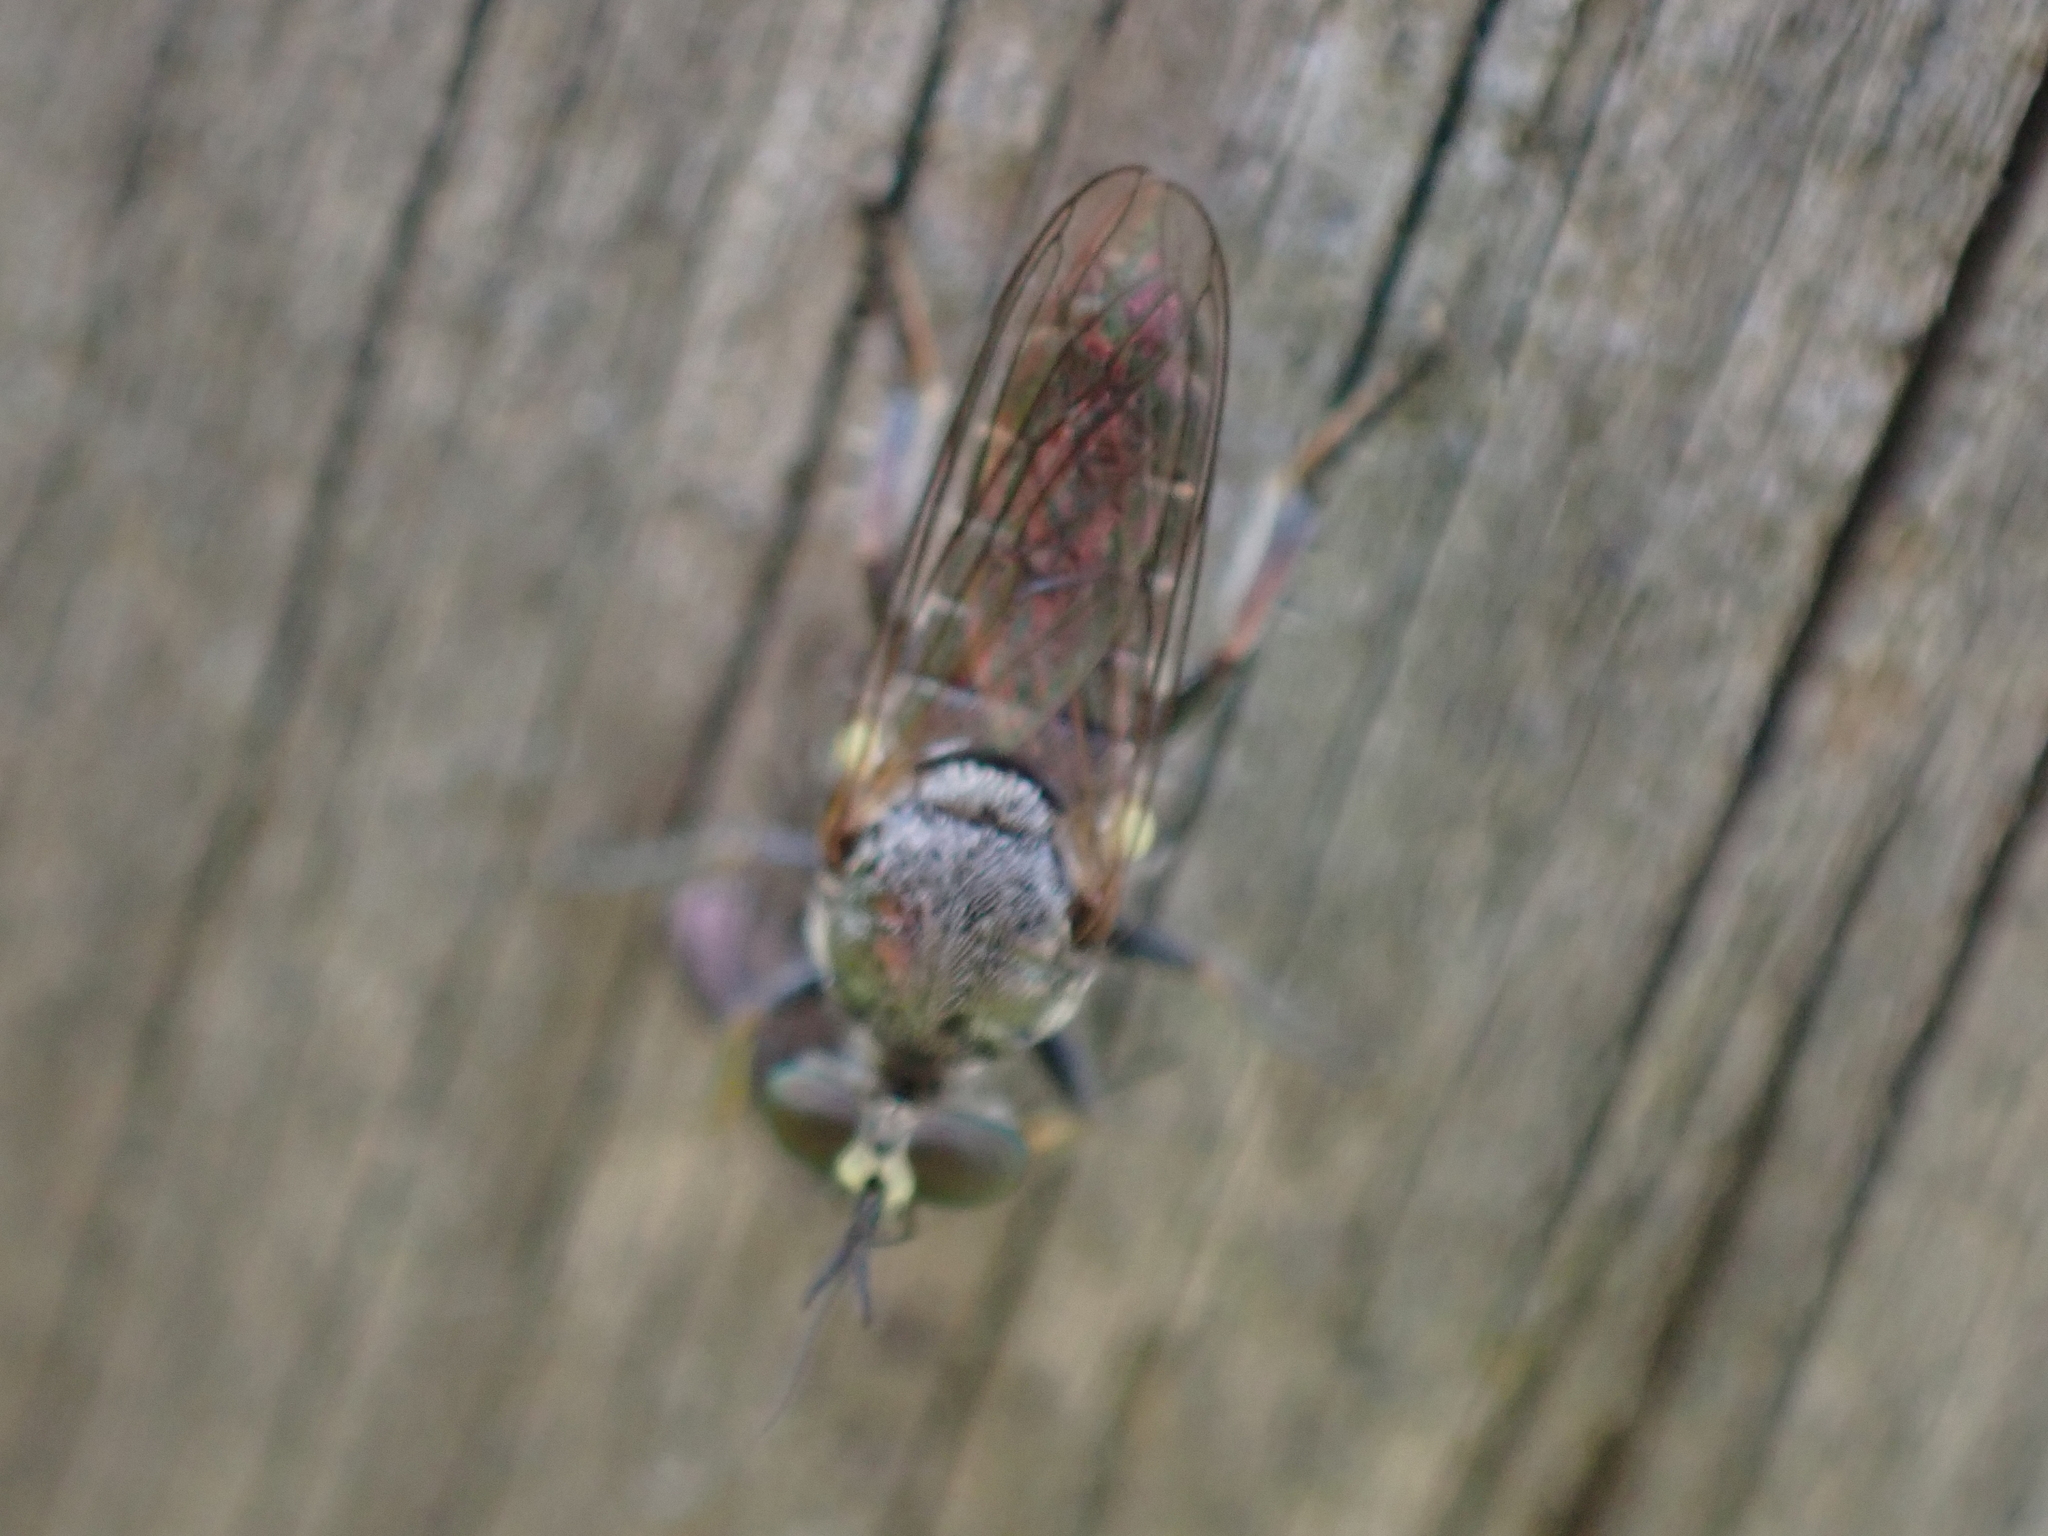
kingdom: Animalia
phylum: Arthropoda
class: Insecta
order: Diptera
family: Asilidae
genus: Atomosia
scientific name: Atomosia puella
